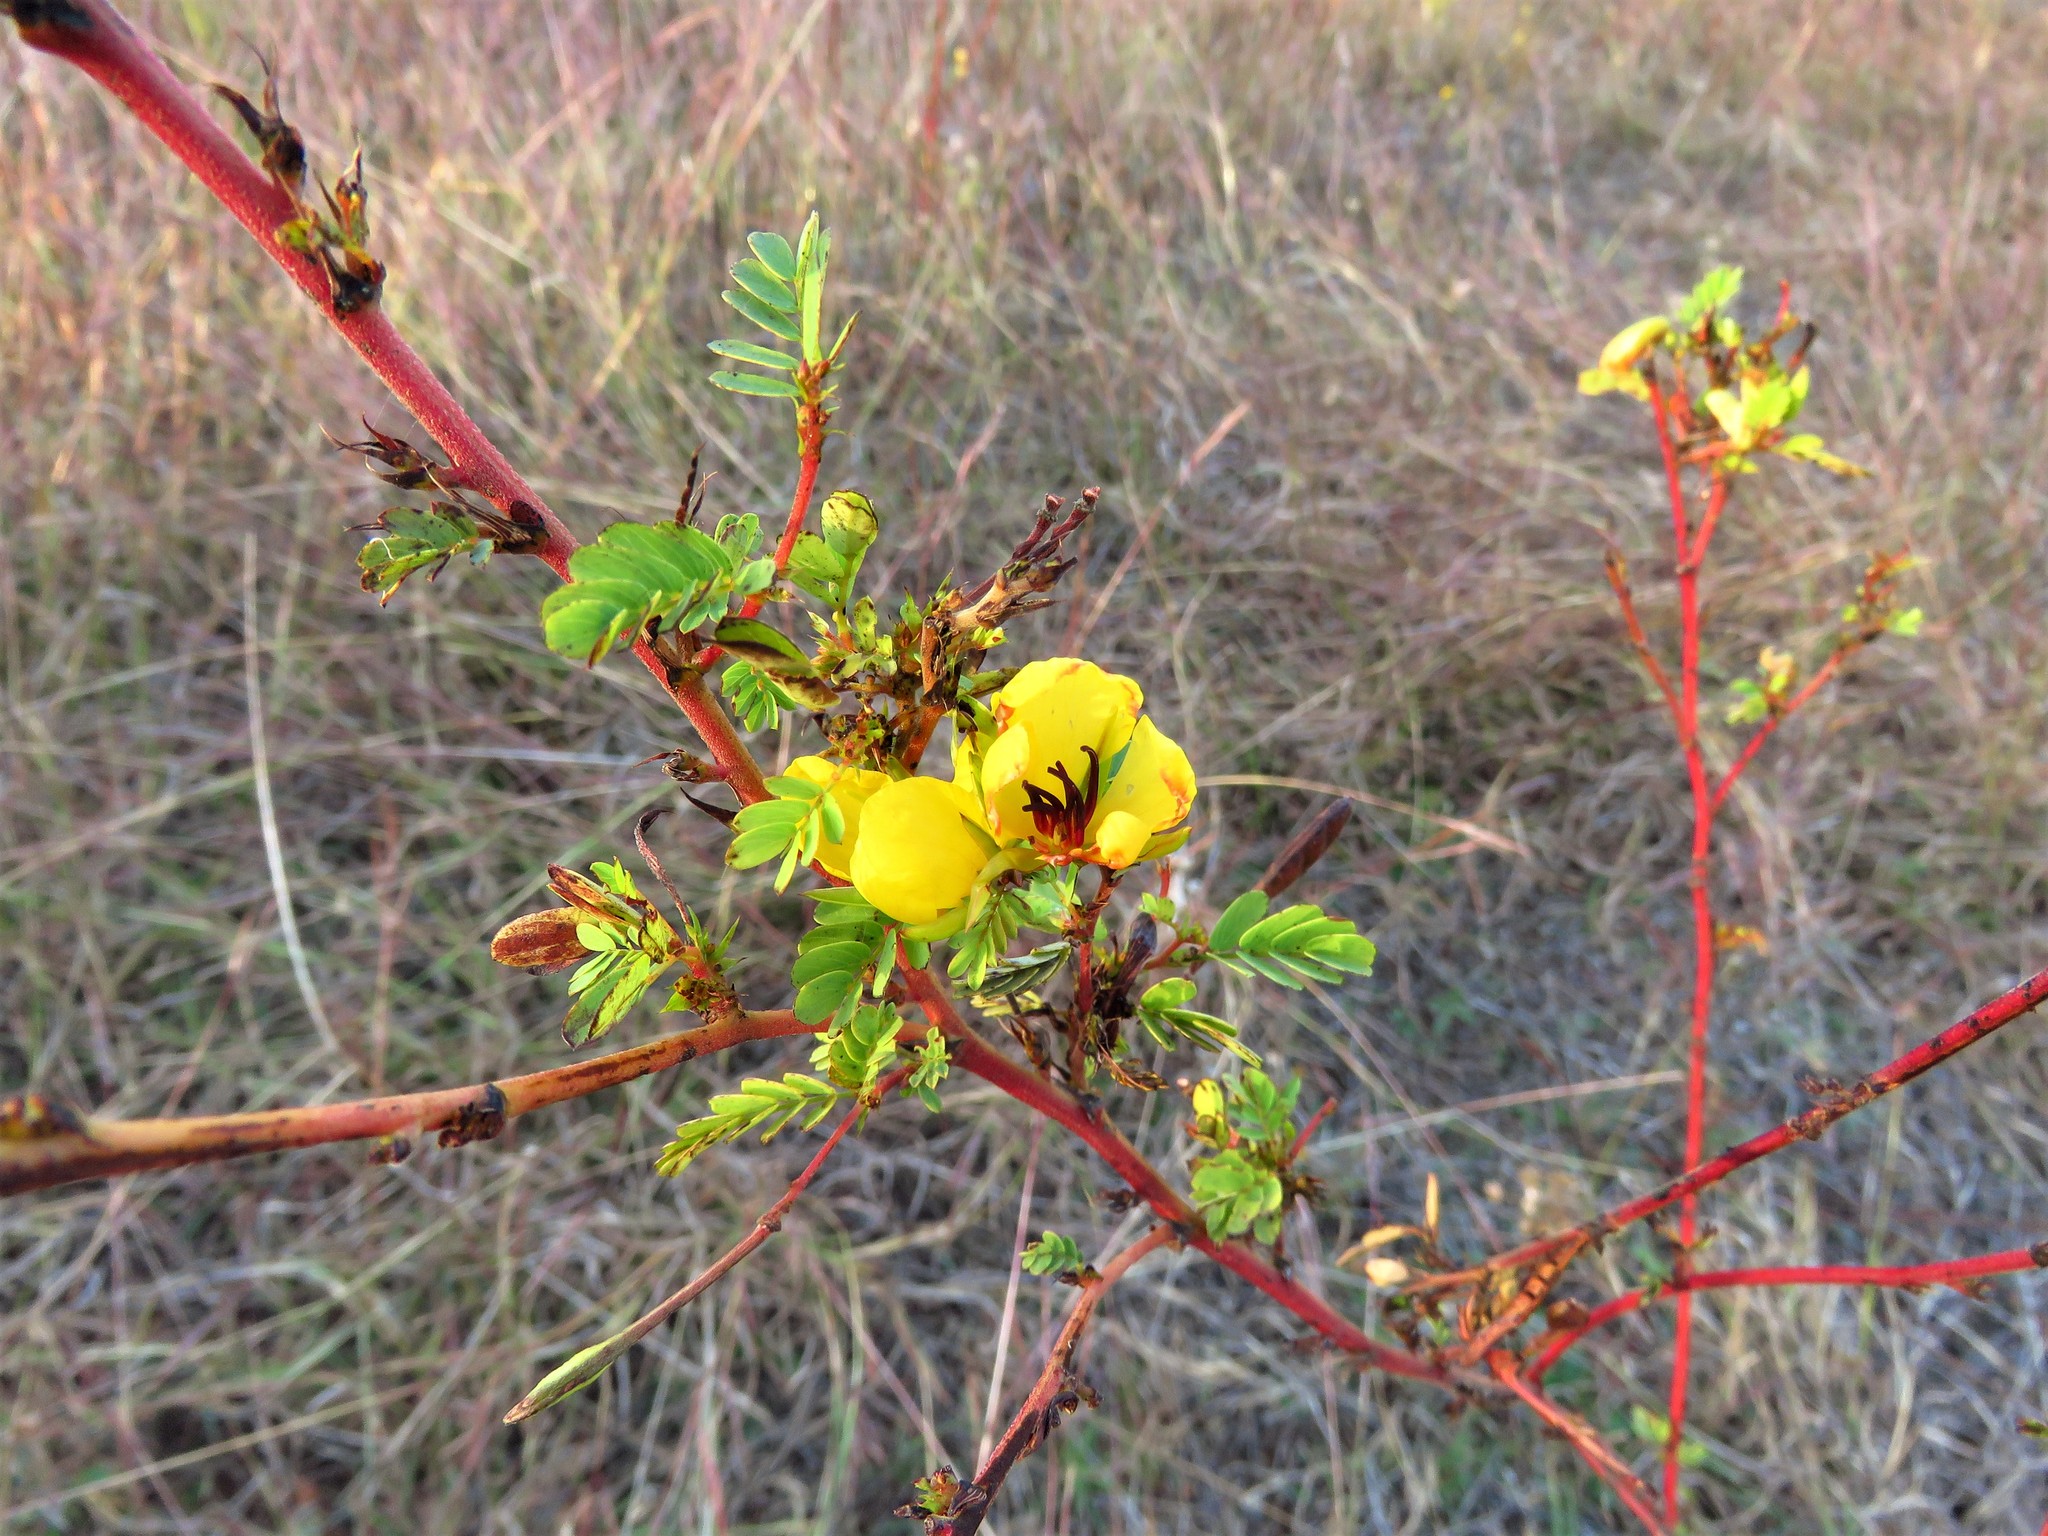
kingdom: Plantae
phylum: Tracheophyta
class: Magnoliopsida
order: Fabales
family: Fabaceae
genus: Chamaecrista
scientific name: Chamaecrista fasciculata
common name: Golden cassia
